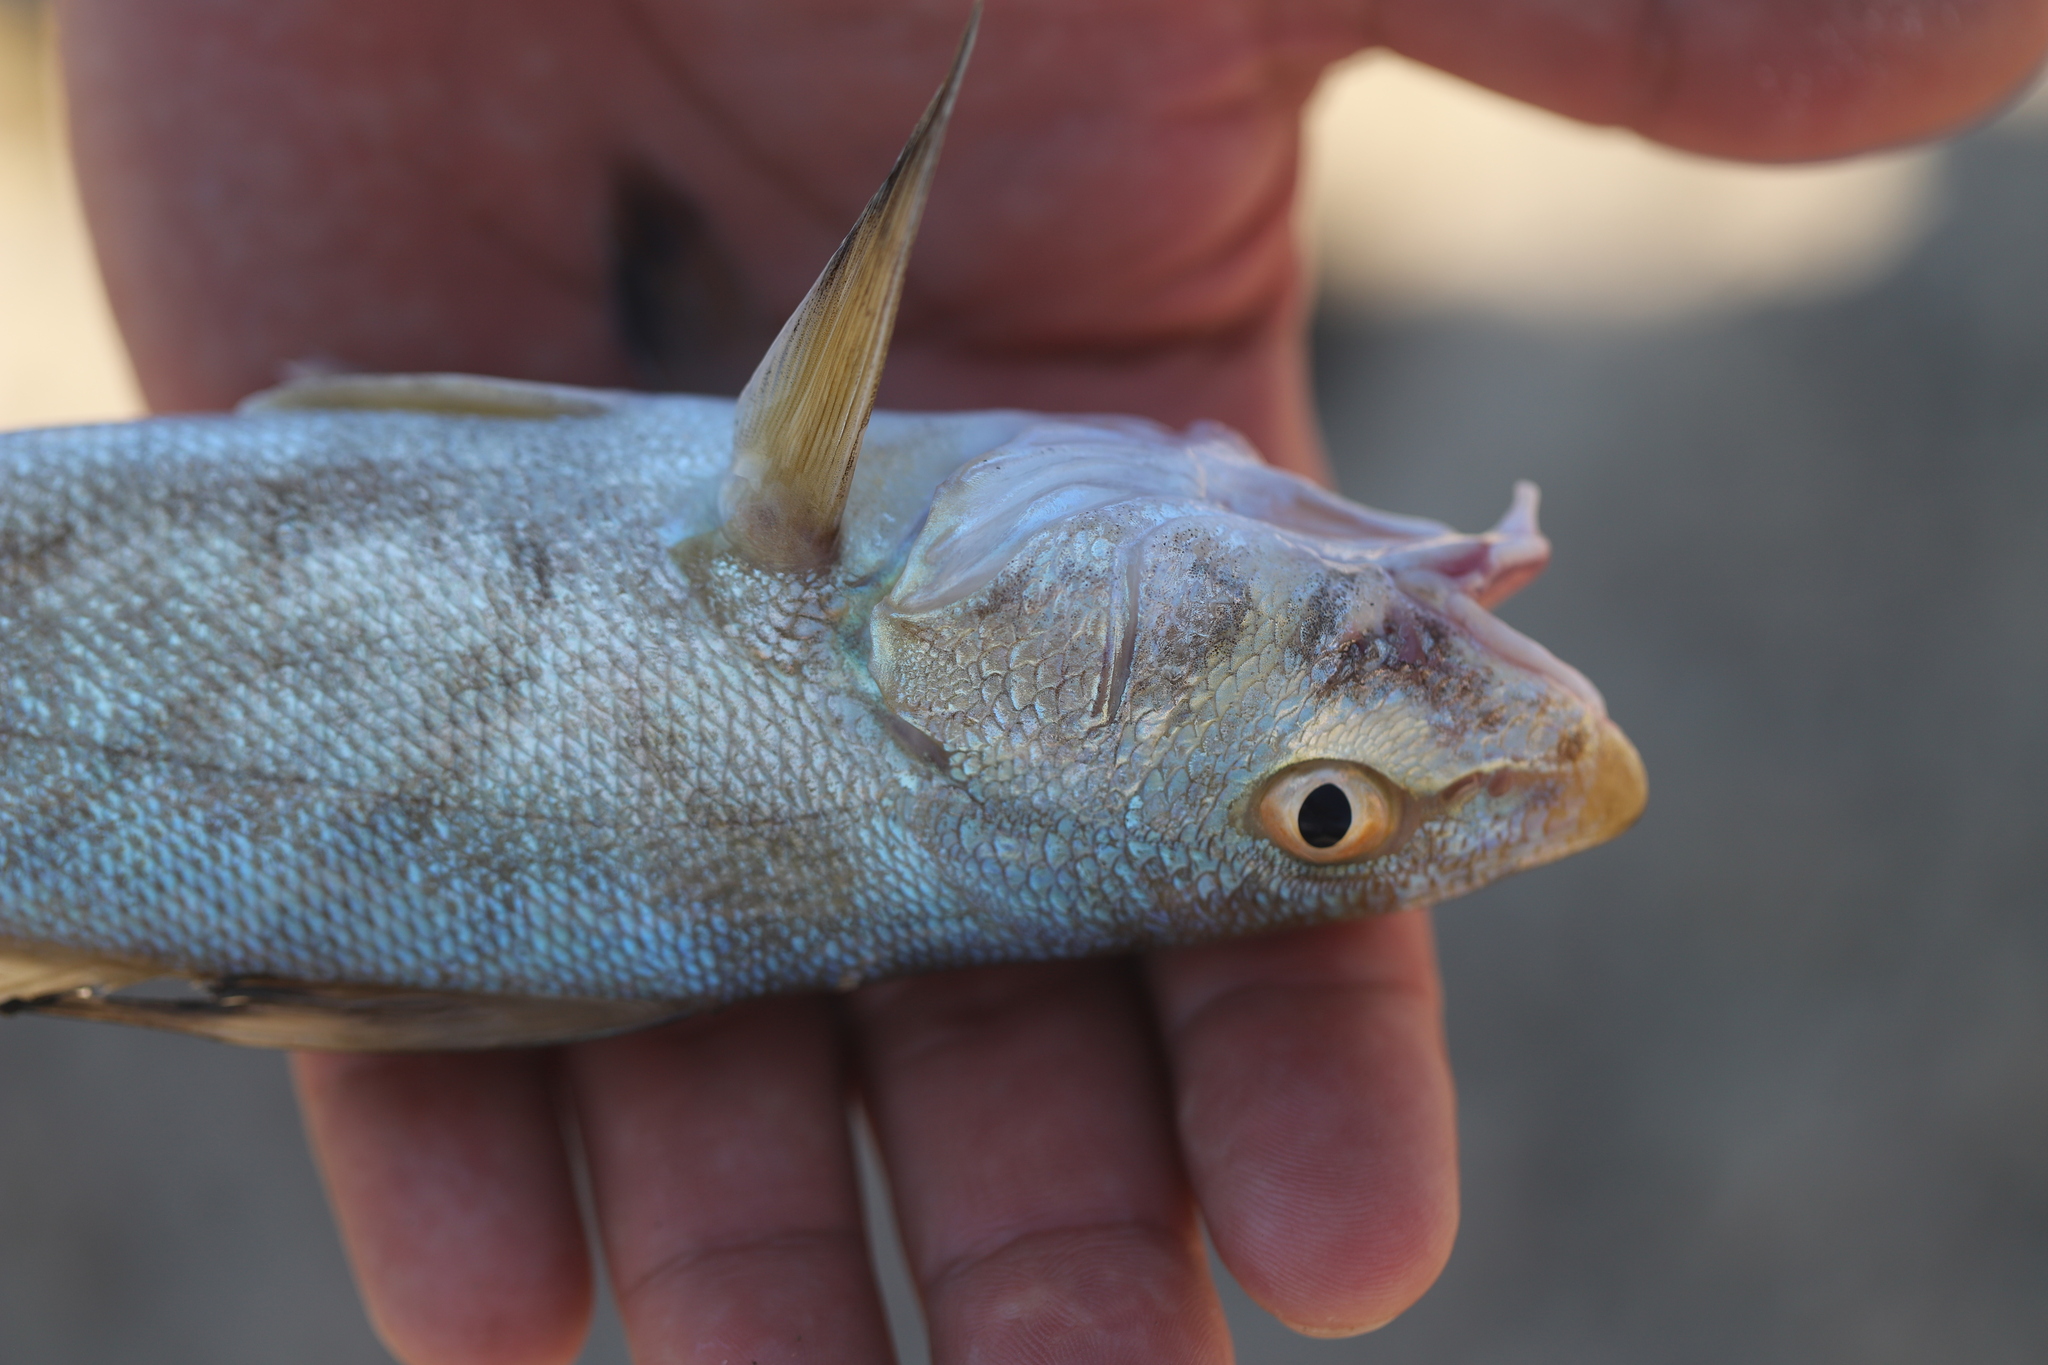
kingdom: Animalia
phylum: Chordata
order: Perciformes
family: Sciaenidae
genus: Menticirrhus
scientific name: Menticirrhus saxatilis
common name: Kingfish
